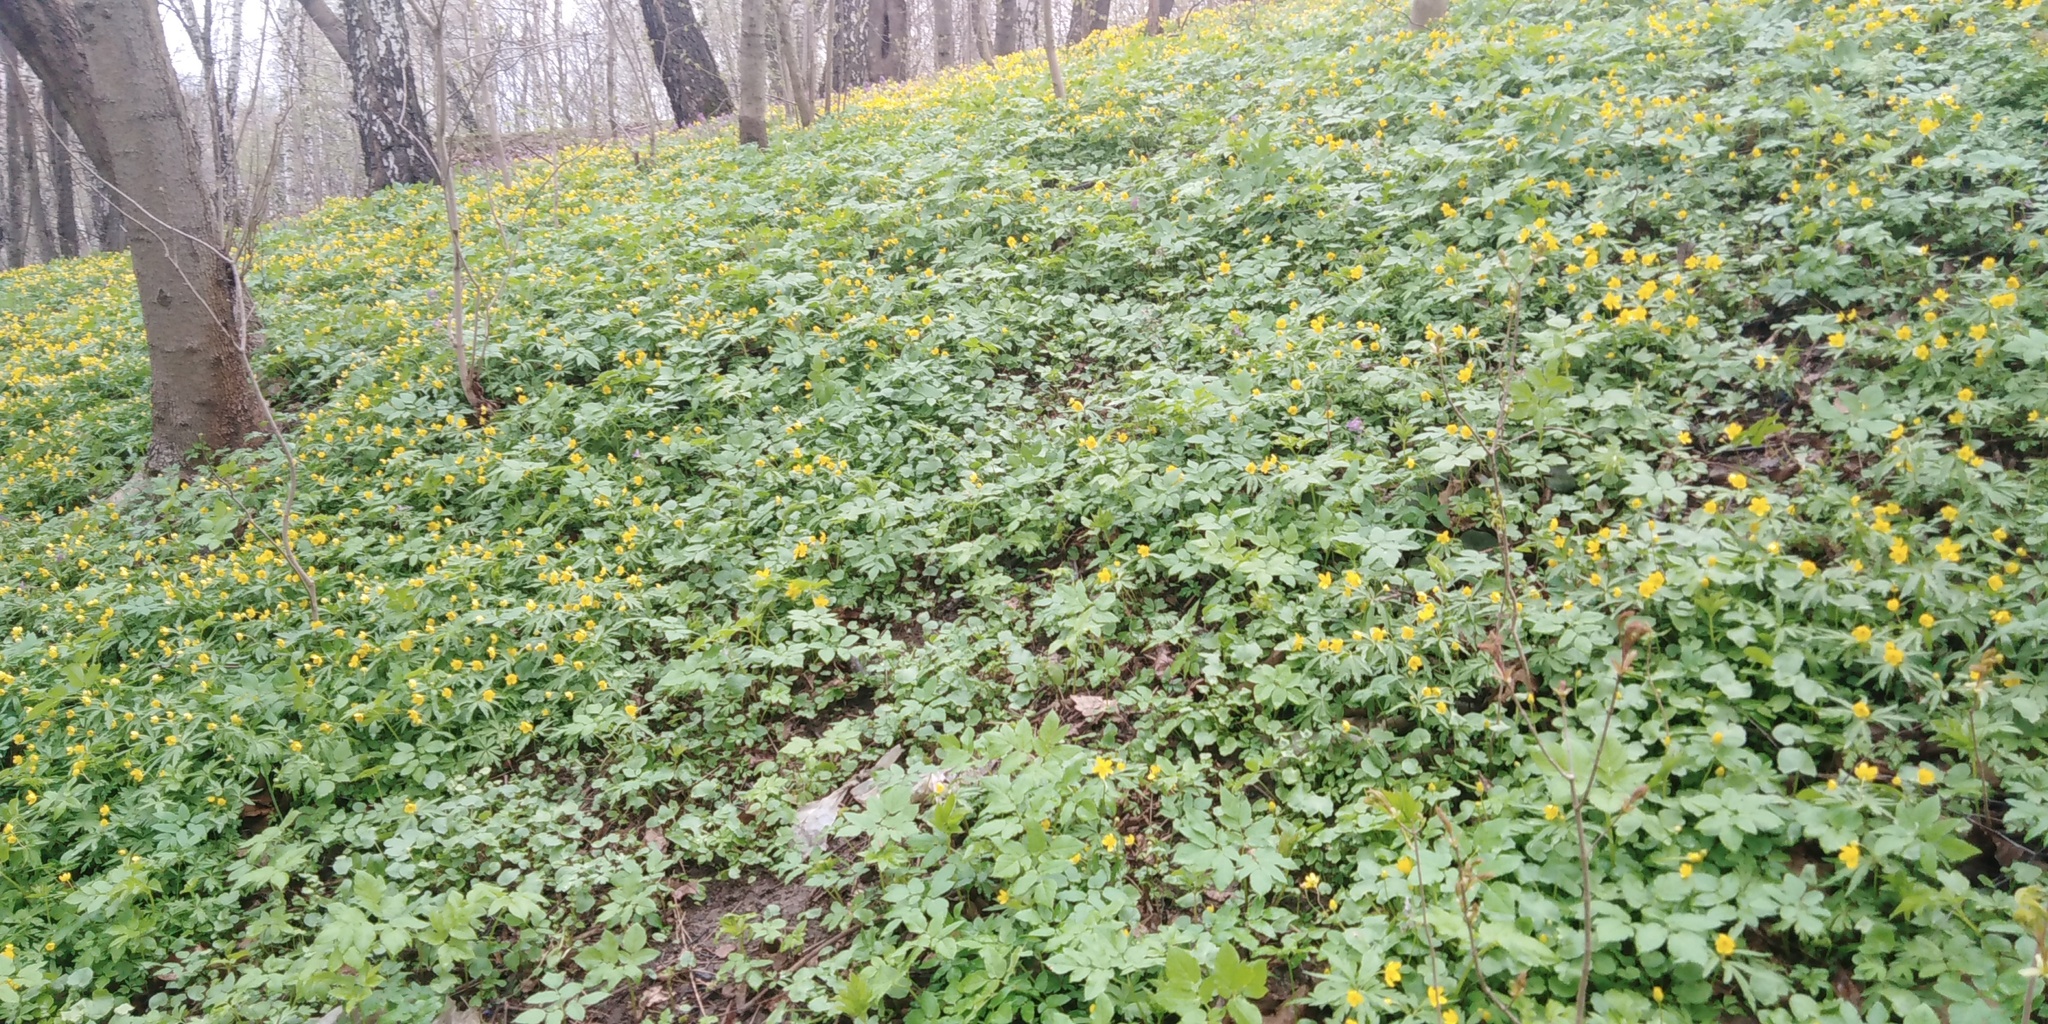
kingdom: Plantae
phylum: Tracheophyta
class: Magnoliopsida
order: Ranunculales
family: Ranunculaceae
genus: Anemone
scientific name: Anemone ranunculoides
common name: Yellow anemone
